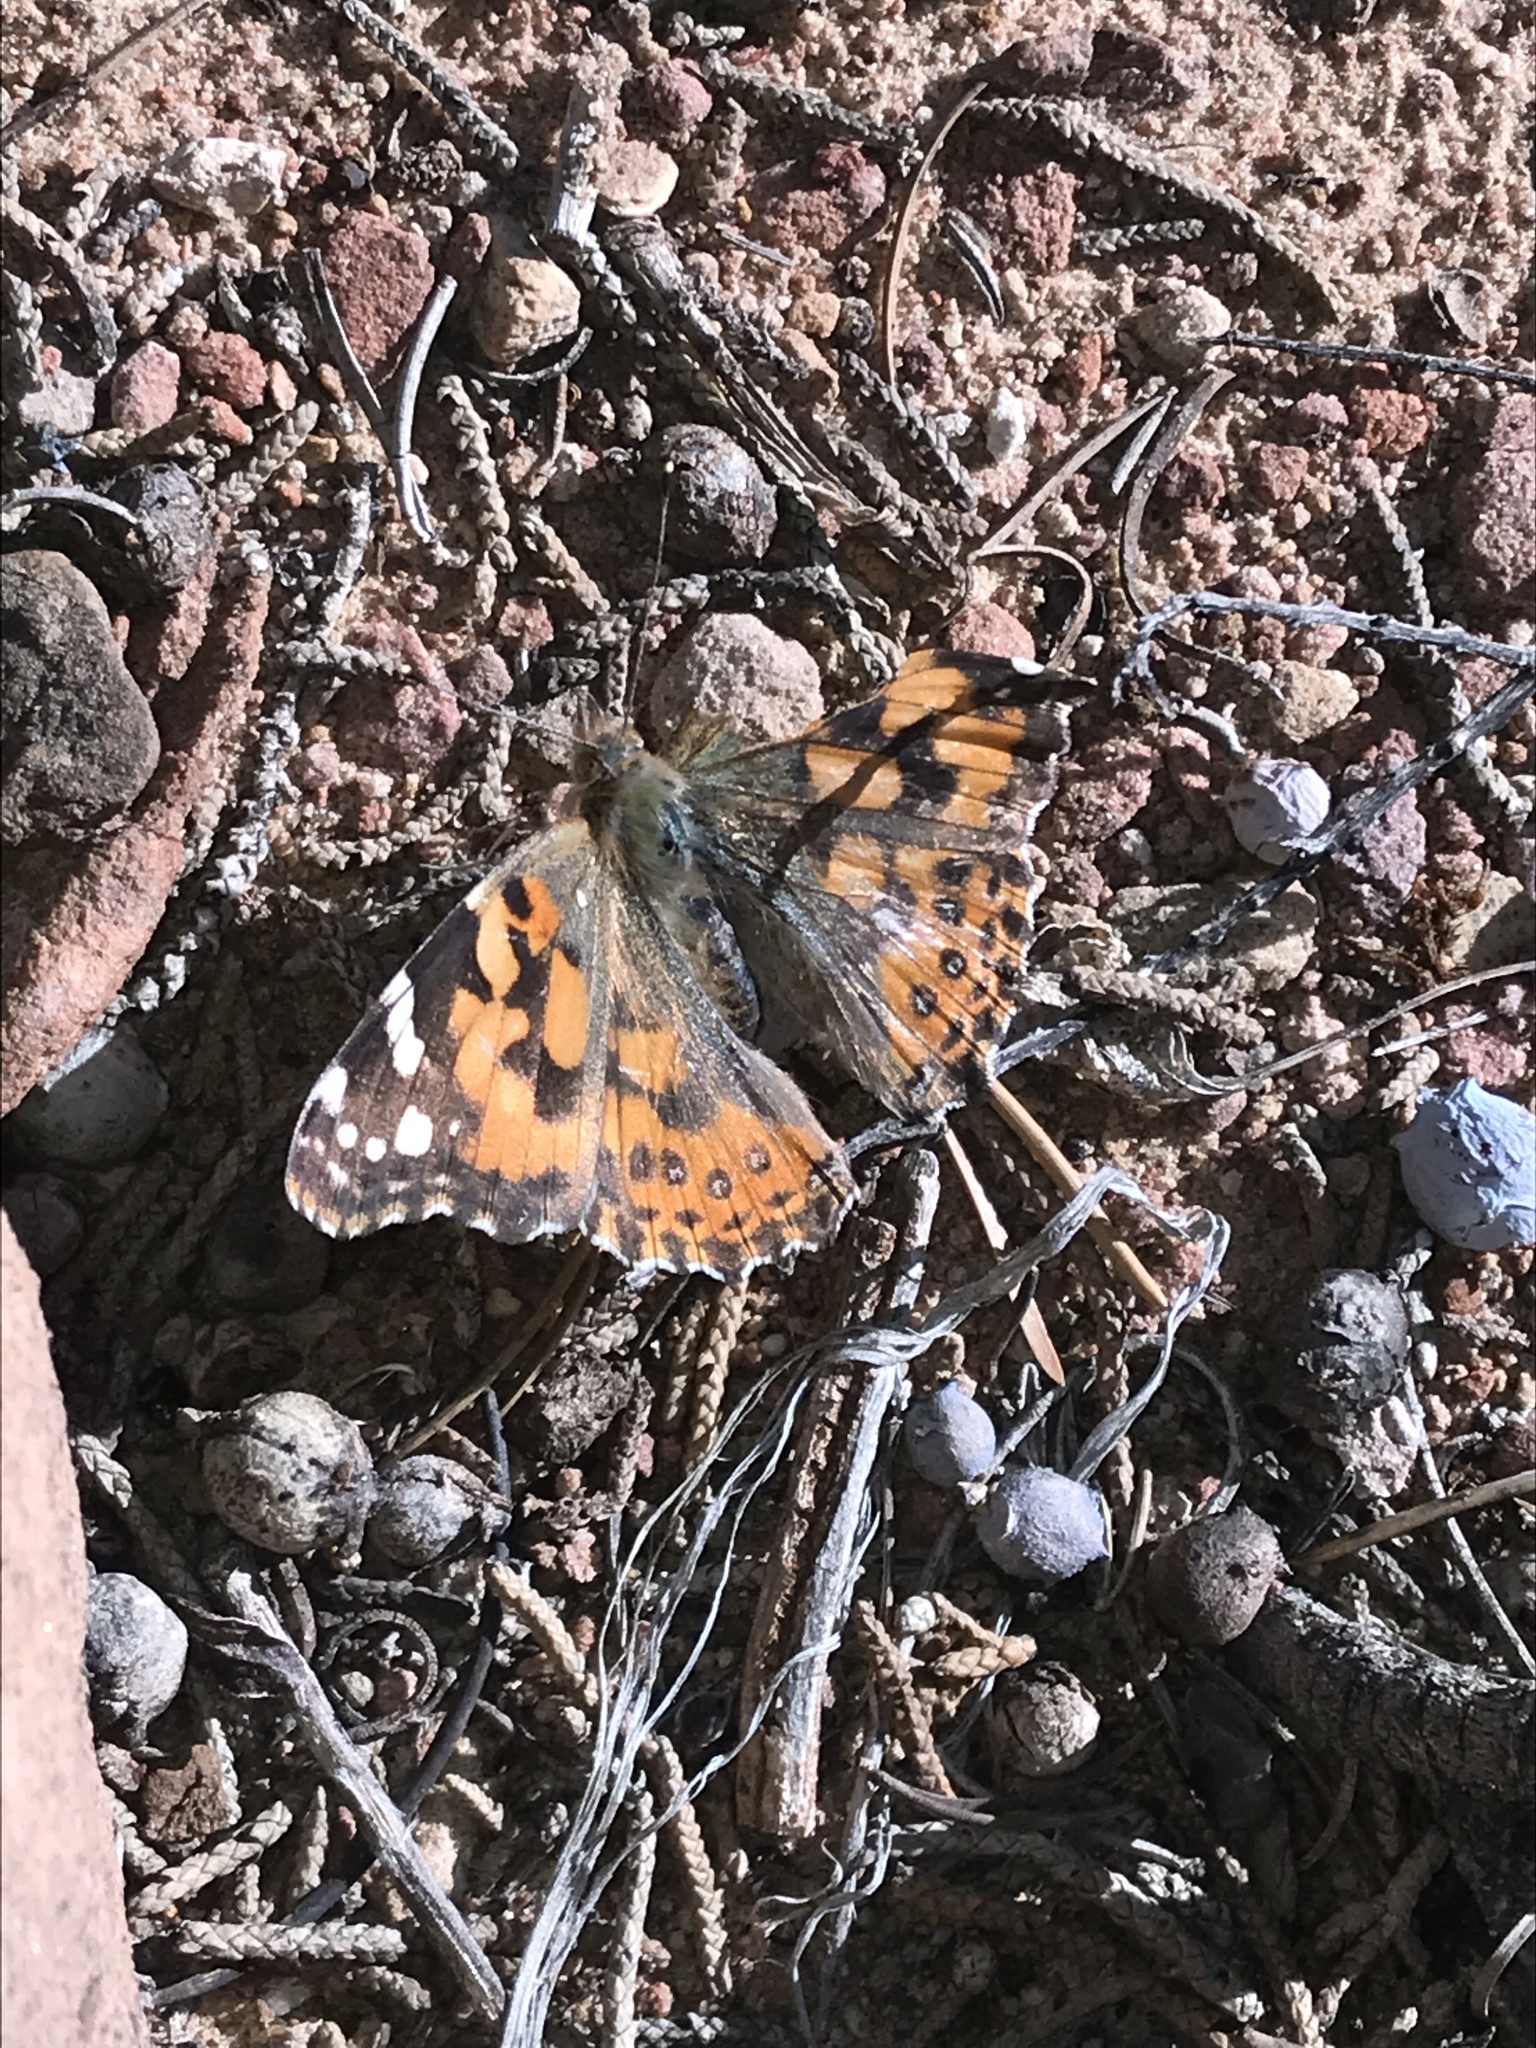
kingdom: Animalia
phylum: Arthropoda
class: Insecta
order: Lepidoptera
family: Nymphalidae
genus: Vanessa
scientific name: Vanessa cardui
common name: Painted lady
